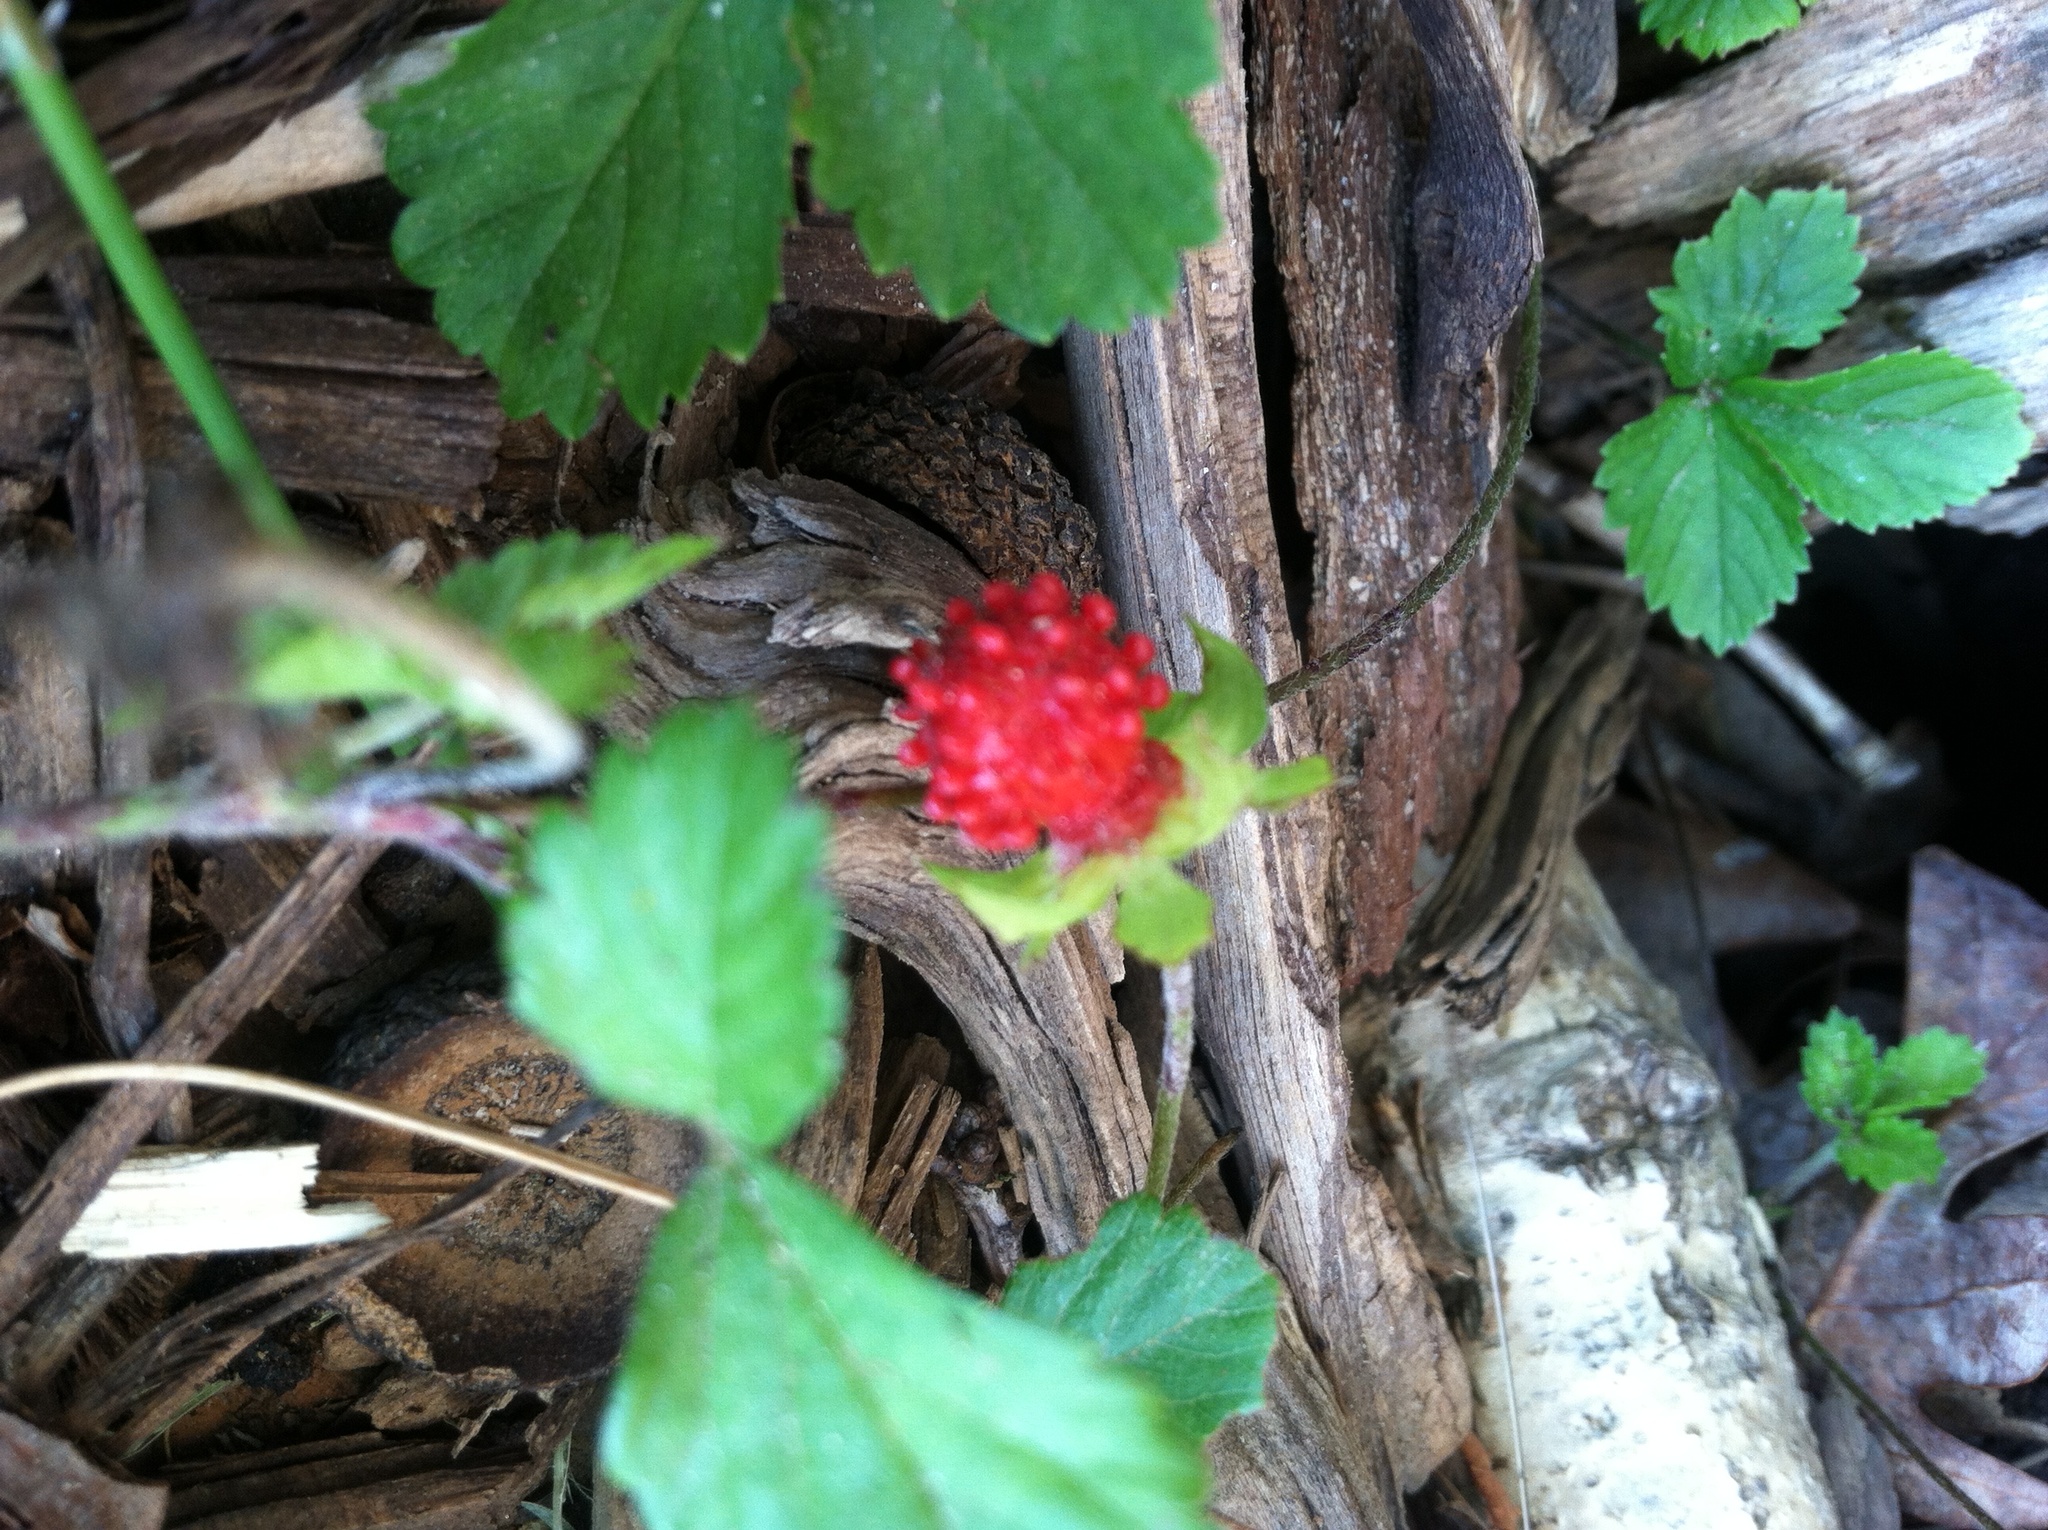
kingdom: Plantae
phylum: Tracheophyta
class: Magnoliopsida
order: Rosales
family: Rosaceae
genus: Potentilla
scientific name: Potentilla indica
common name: Yellow-flowered strawberry
